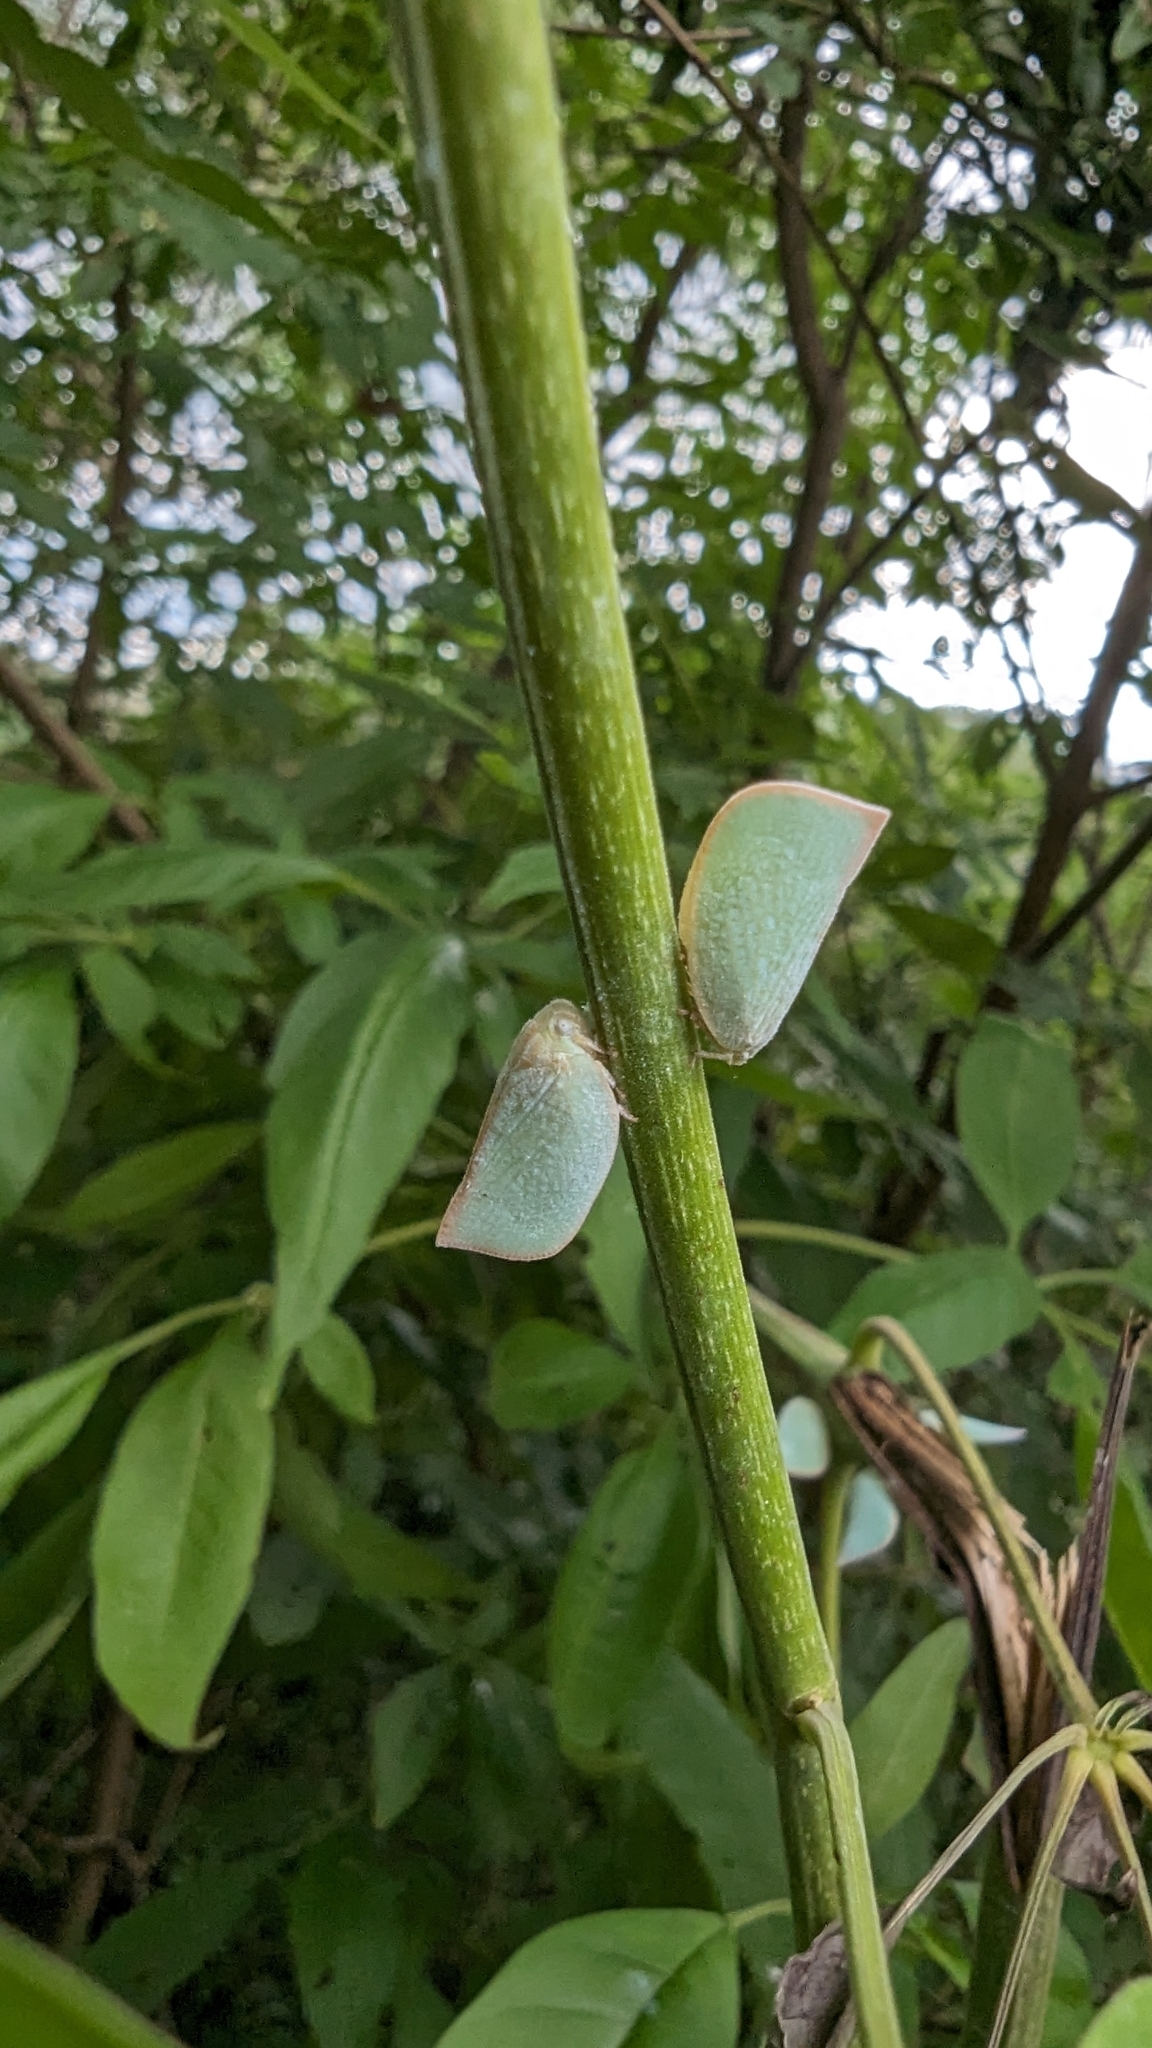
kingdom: Animalia
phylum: Arthropoda
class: Insecta
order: Hemiptera
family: Flatidae
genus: Geisha
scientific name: Geisha distinctissima
